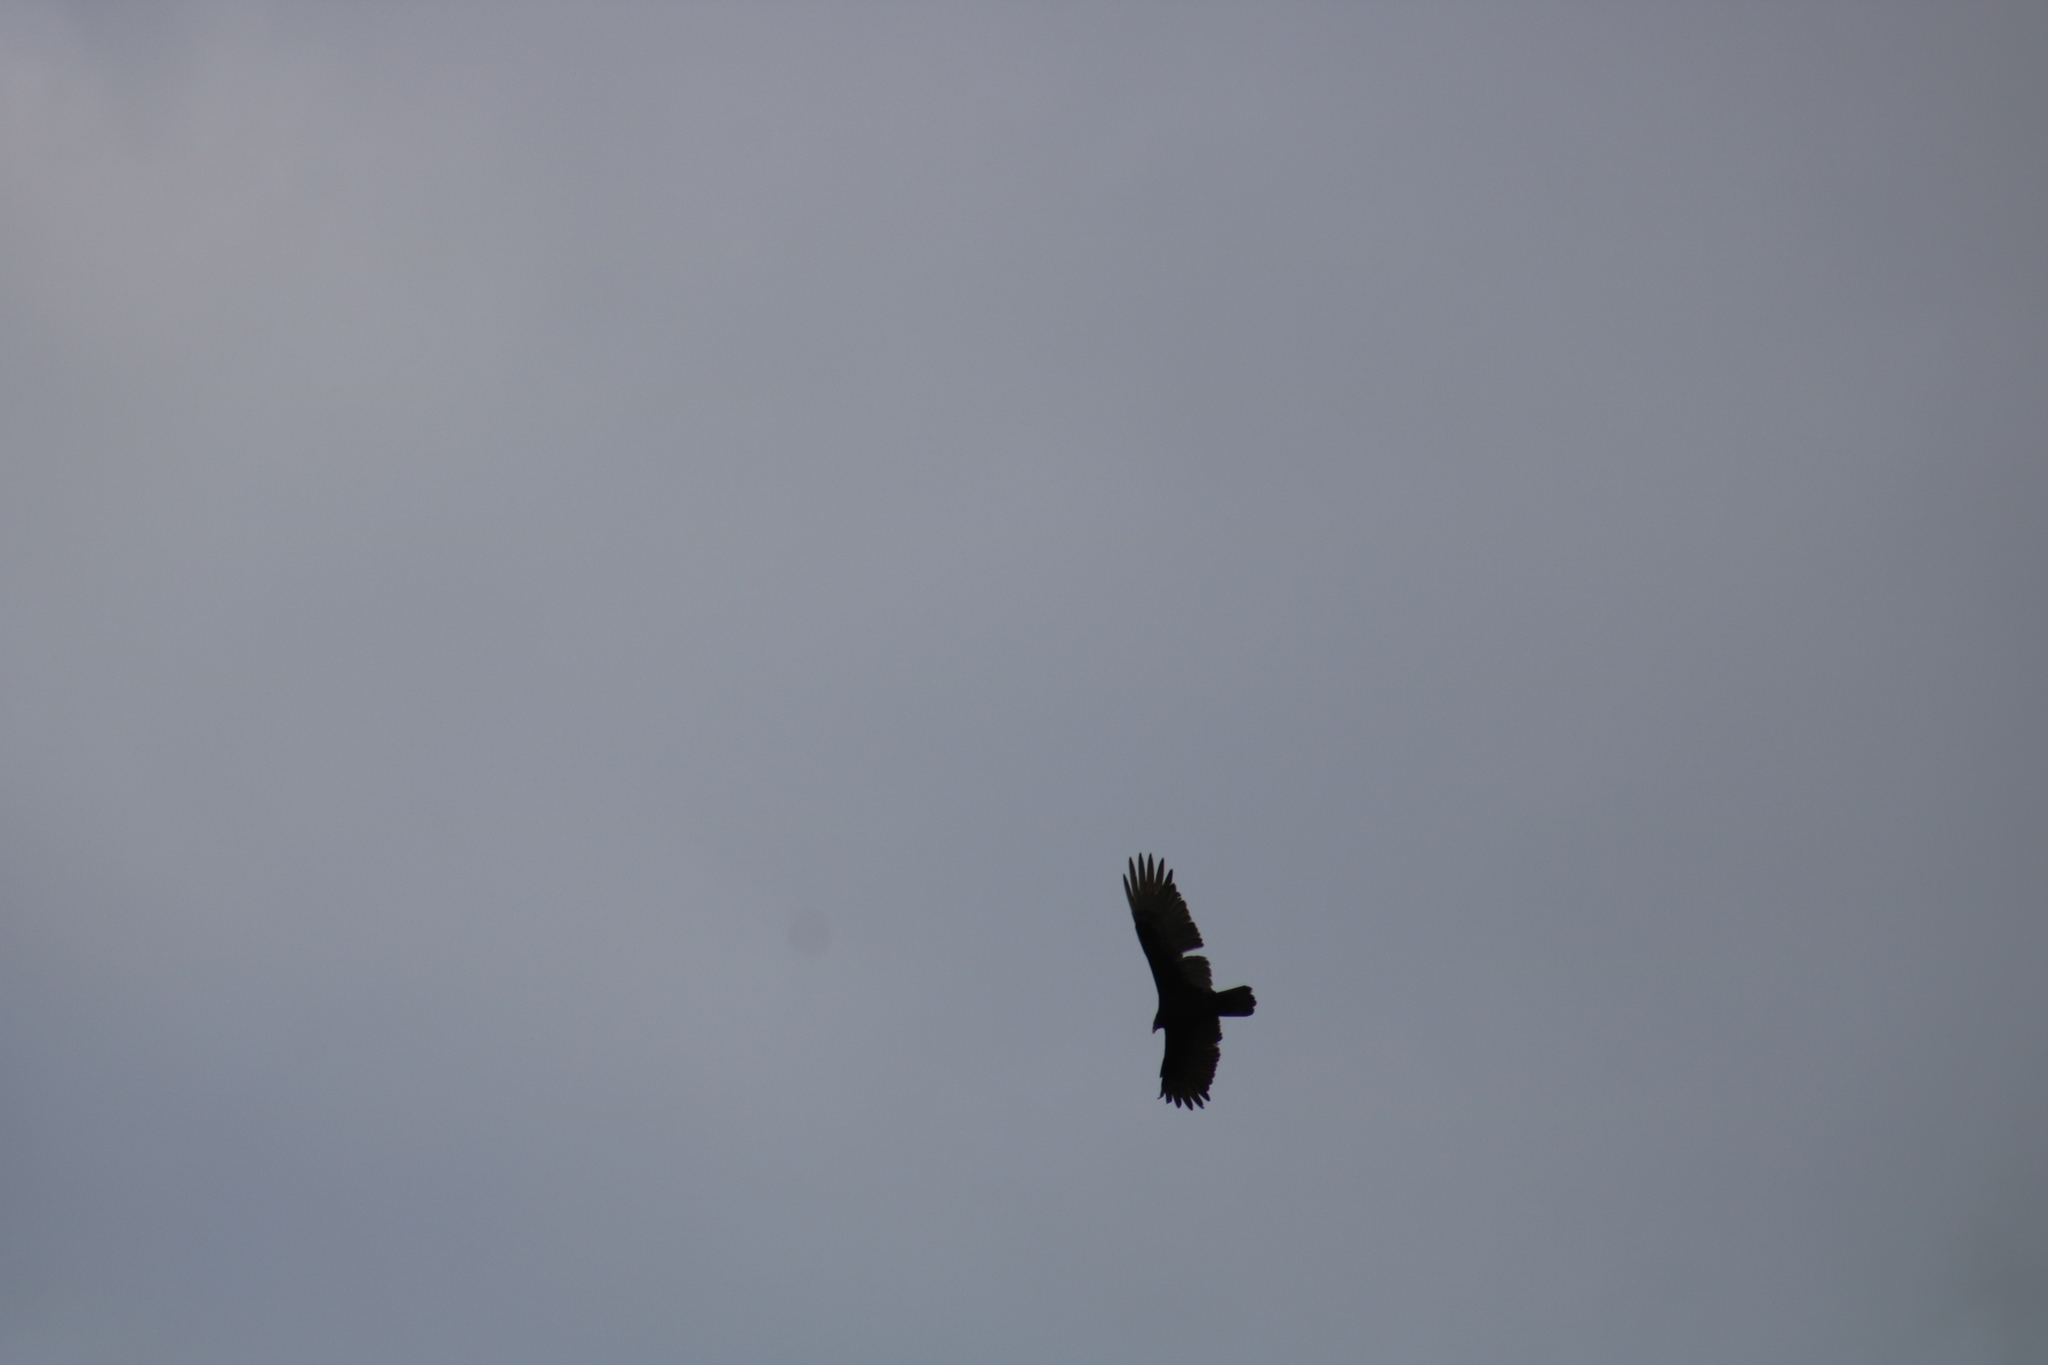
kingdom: Animalia
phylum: Chordata
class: Aves
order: Accipitriformes
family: Cathartidae
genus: Cathartes
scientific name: Cathartes aura
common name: Turkey vulture
